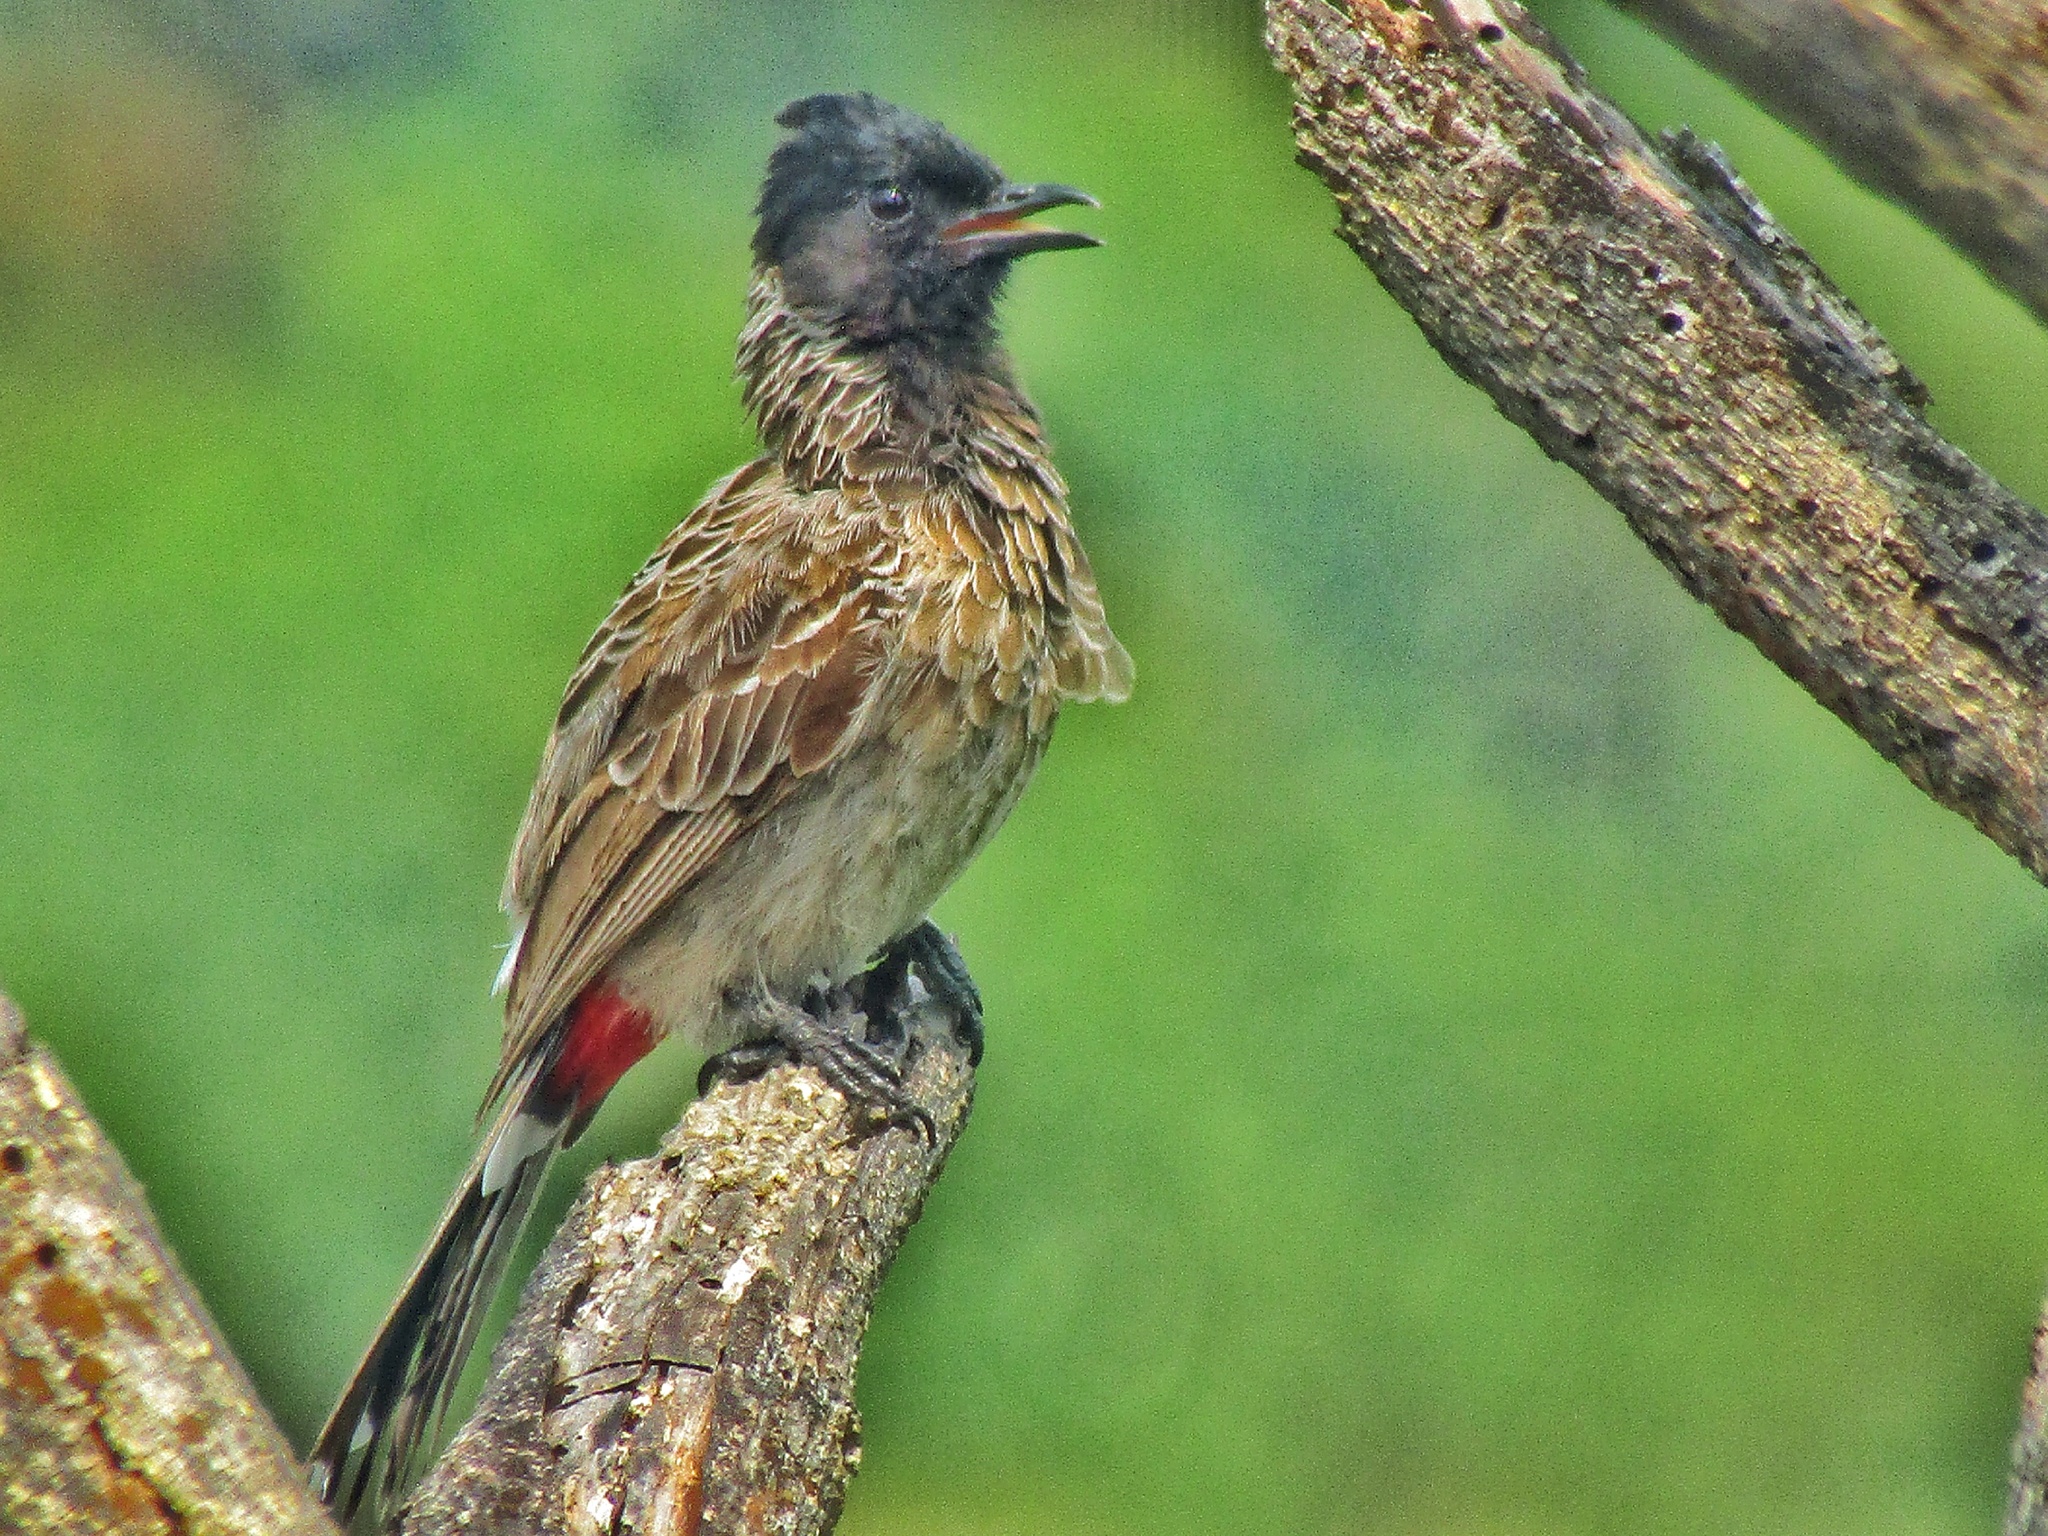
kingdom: Animalia
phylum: Chordata
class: Aves
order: Passeriformes
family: Pycnonotidae
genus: Pycnonotus
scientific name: Pycnonotus cafer
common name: Red-vented bulbul
